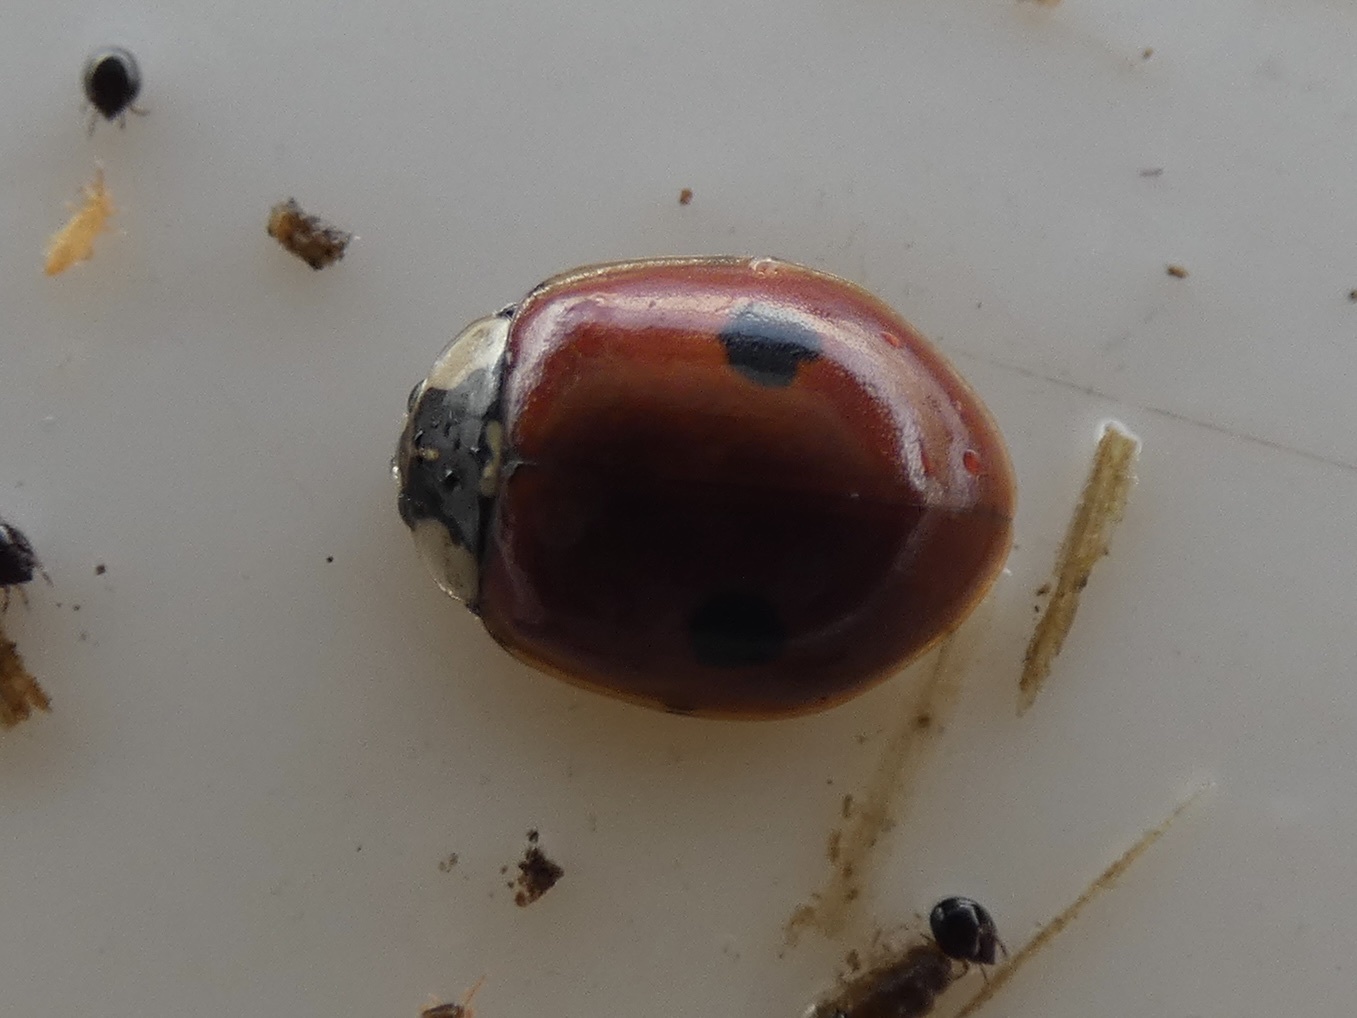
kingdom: Animalia
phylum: Arthropoda
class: Insecta
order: Coleoptera
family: Coccinellidae
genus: Adalia
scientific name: Adalia bipunctata
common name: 2-spot ladybird
